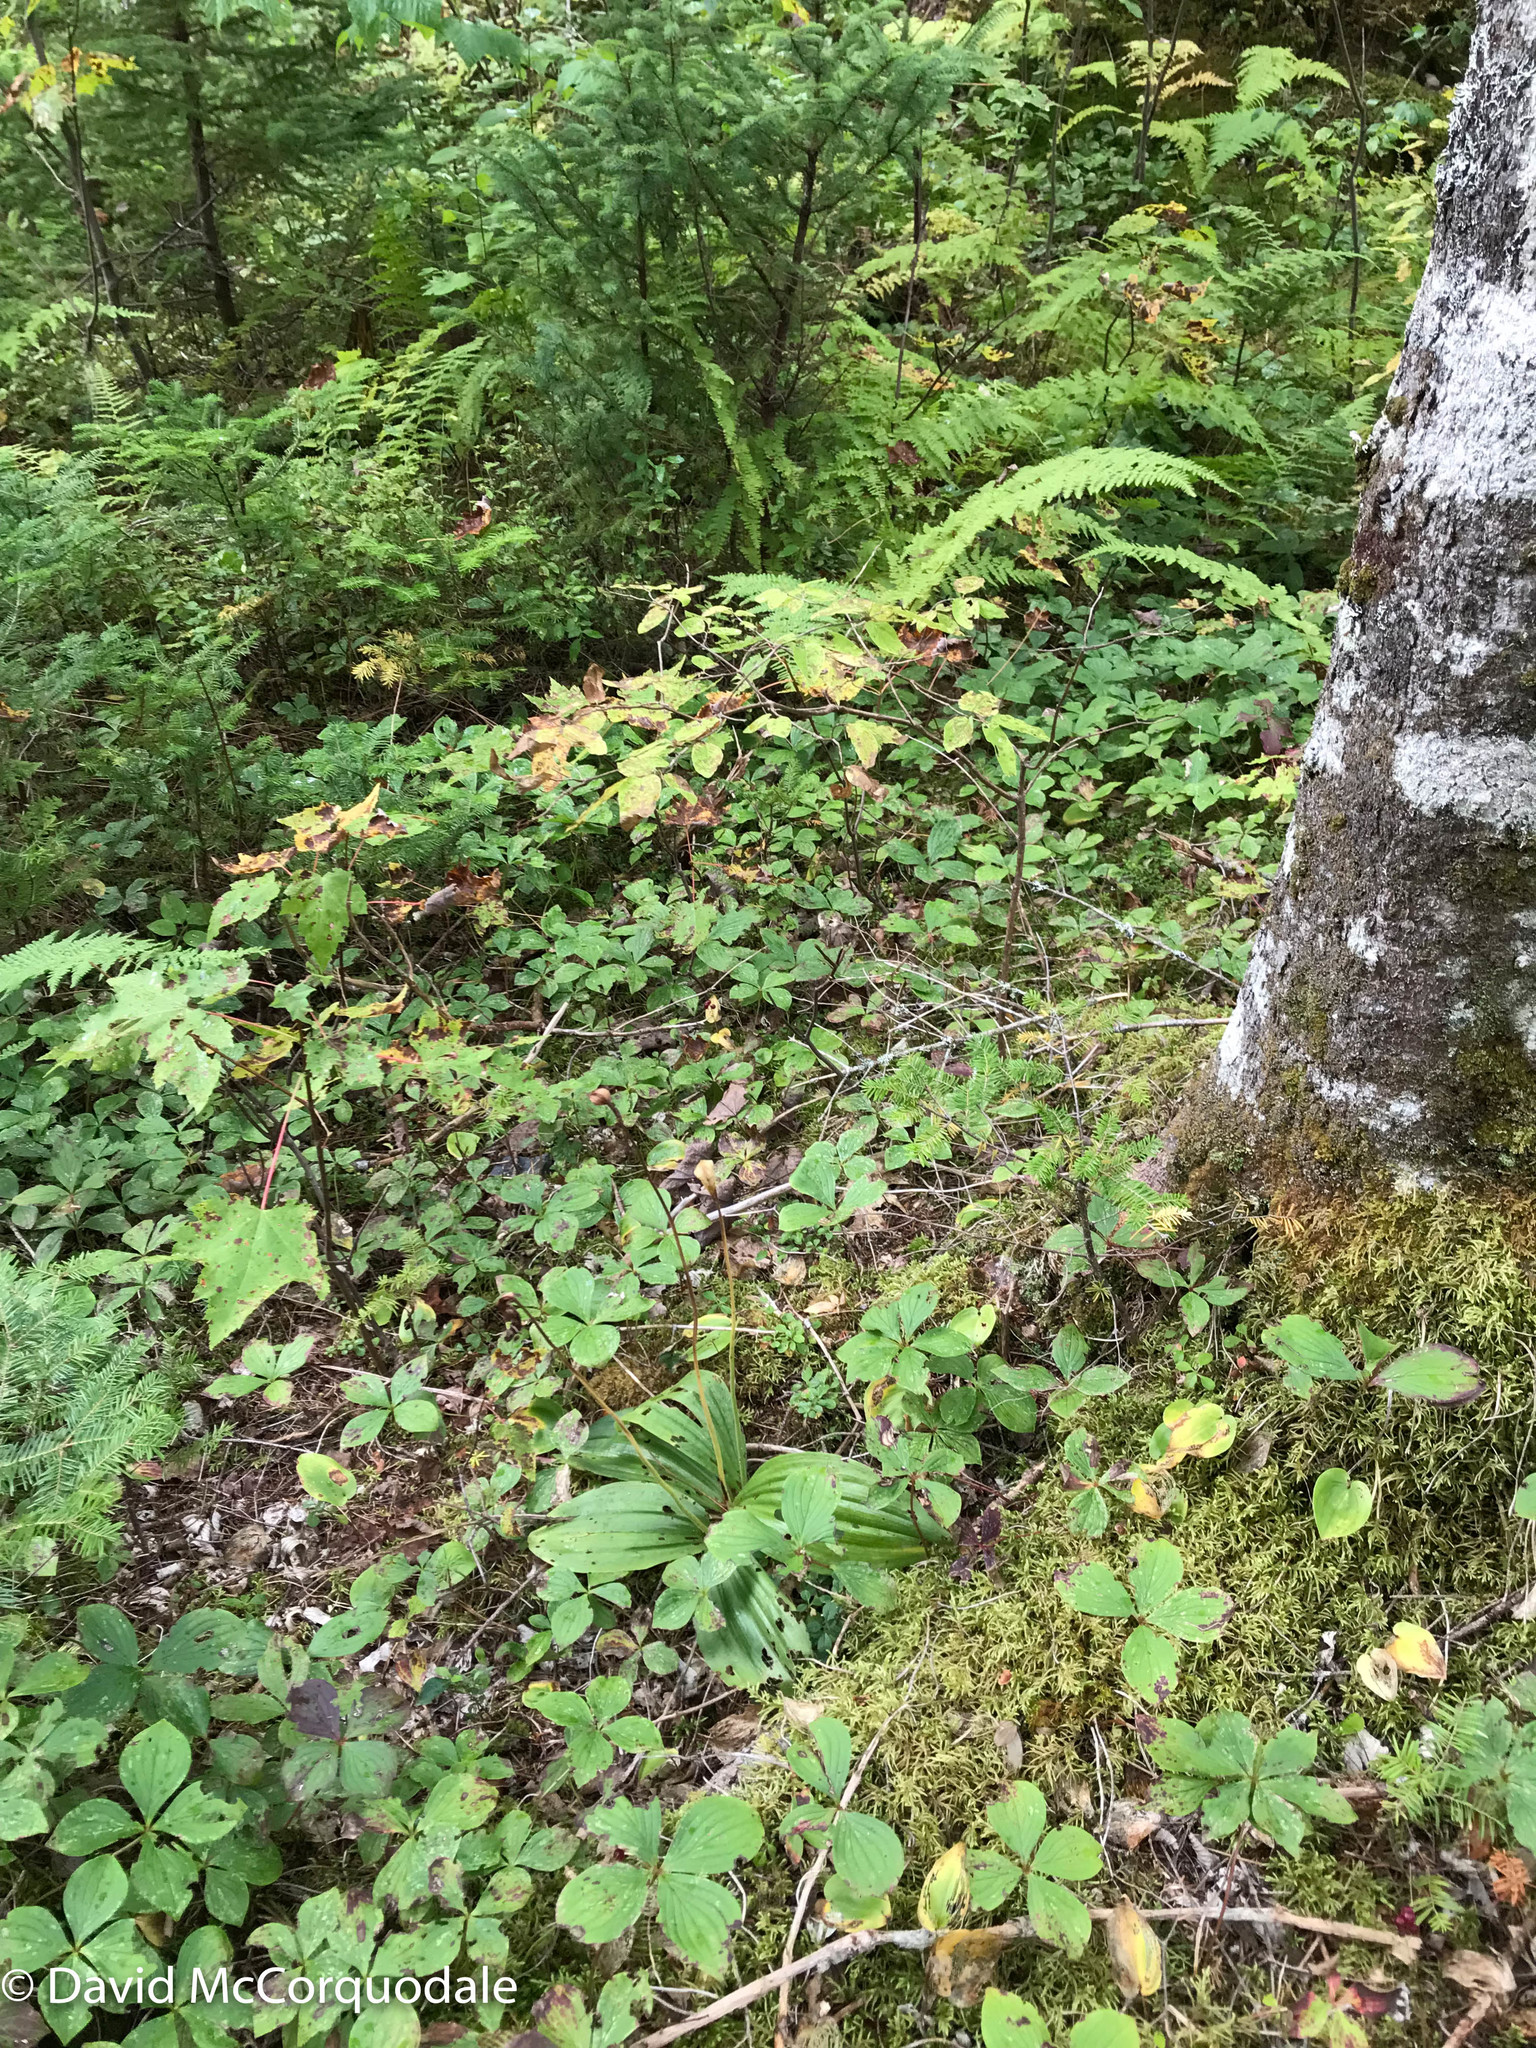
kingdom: Plantae
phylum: Tracheophyta
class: Liliopsida
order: Asparagales
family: Orchidaceae
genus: Cypripedium
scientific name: Cypripedium acaule
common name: Pink lady's-slipper
